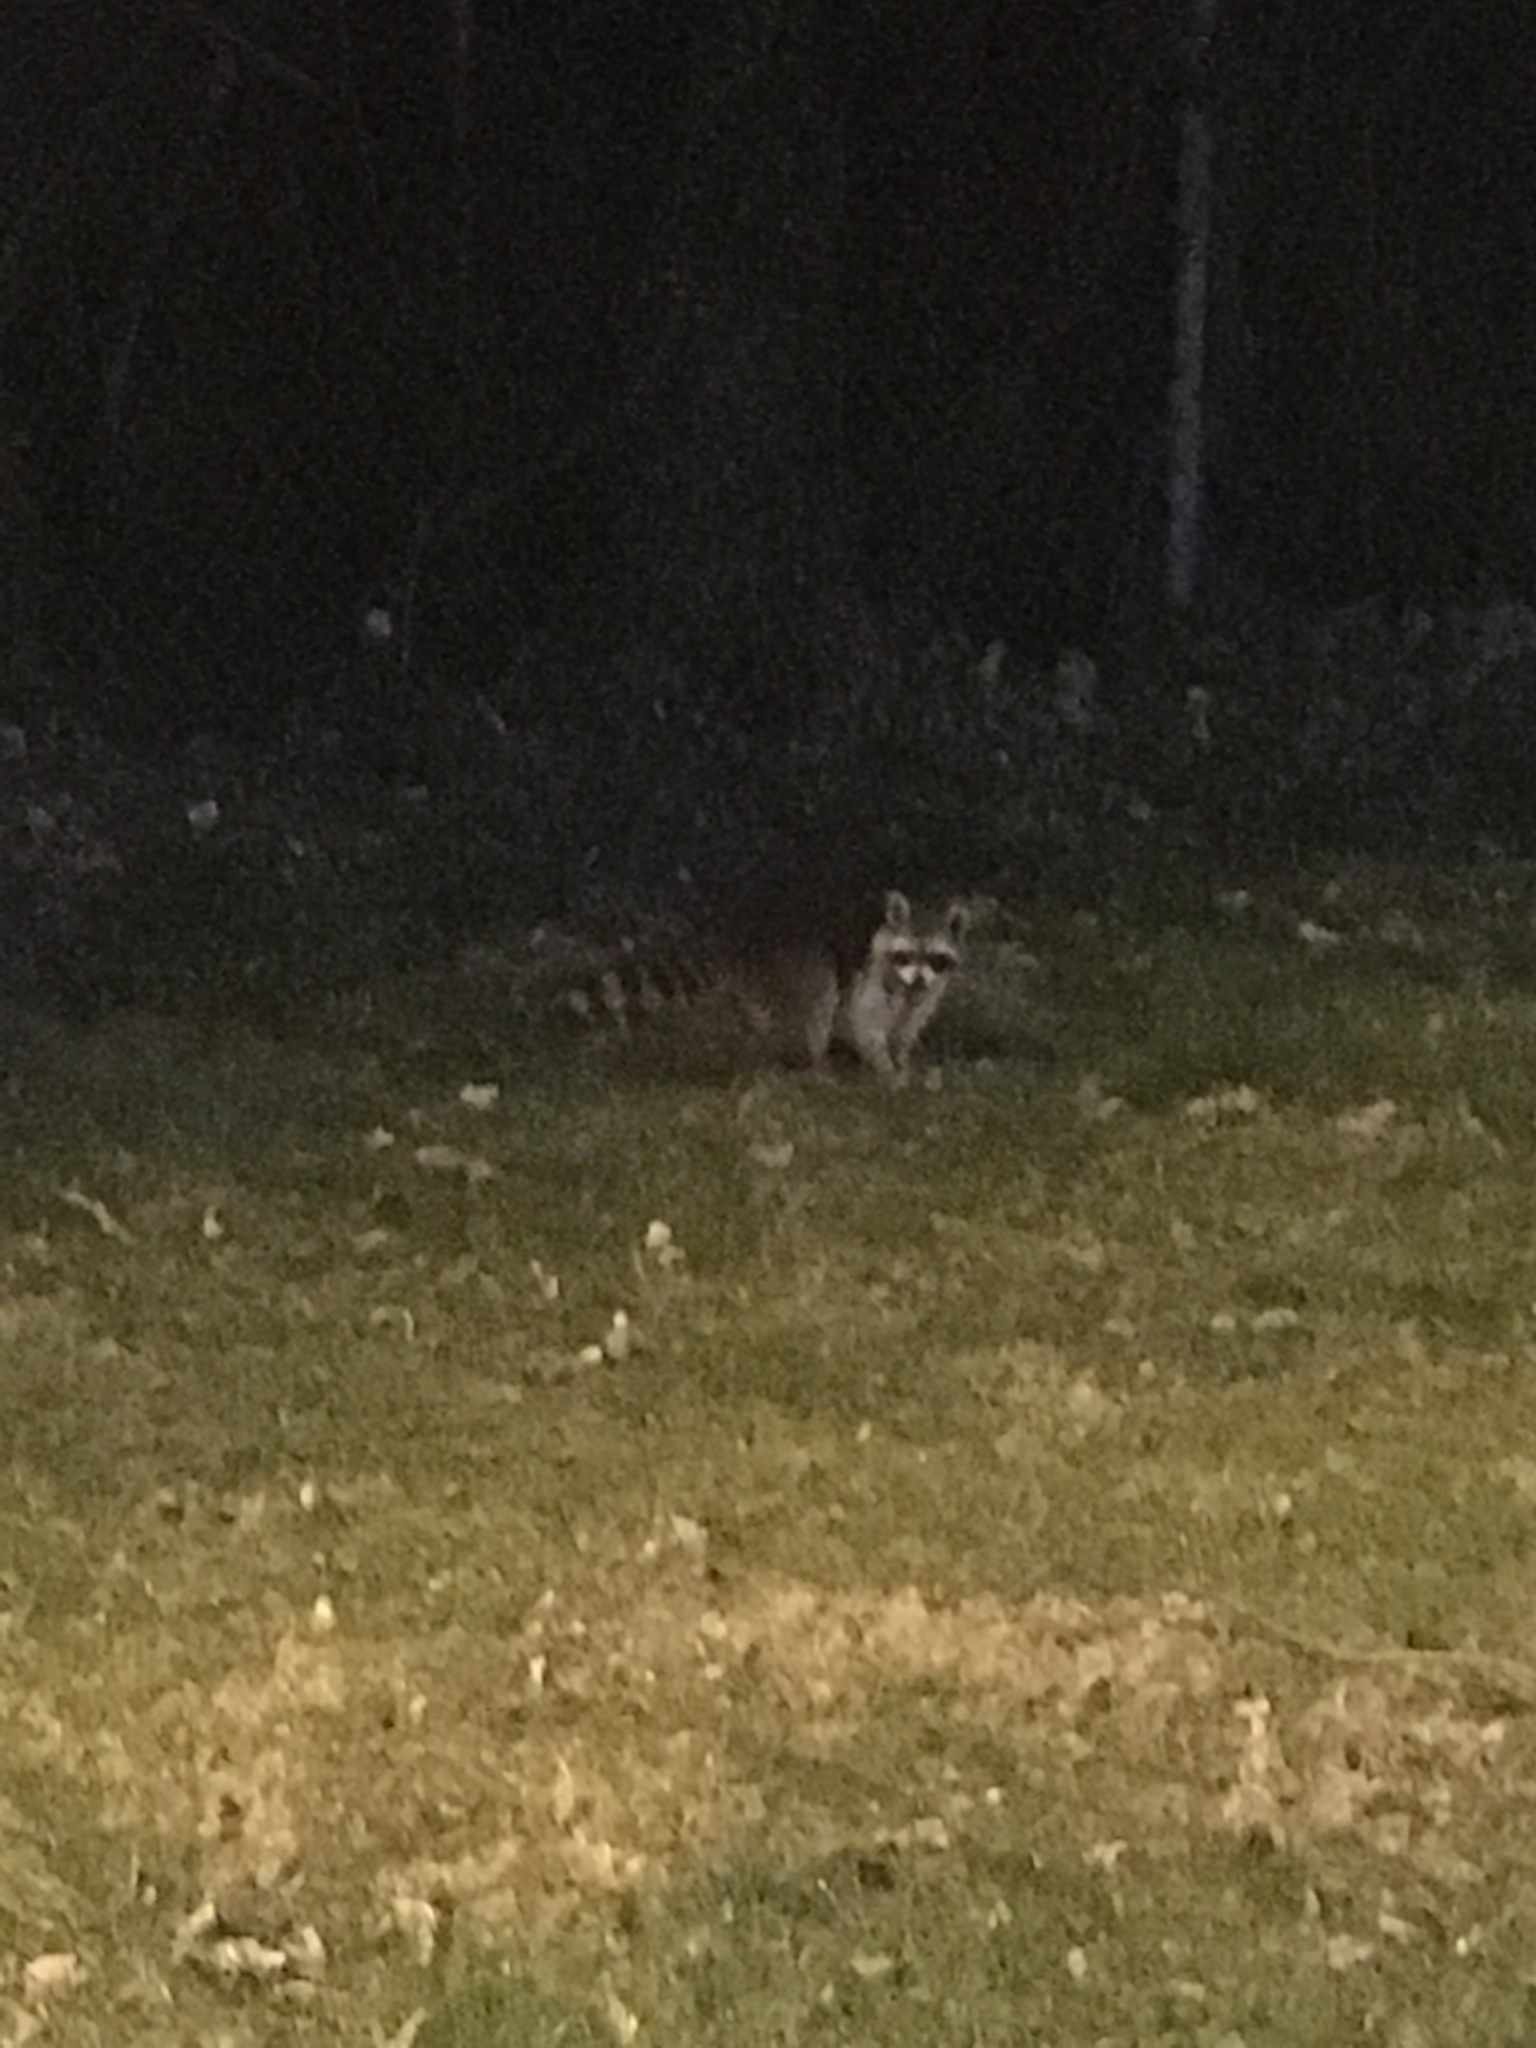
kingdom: Animalia
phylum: Chordata
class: Mammalia
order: Carnivora
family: Procyonidae
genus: Procyon
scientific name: Procyon lotor
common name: Raccoon
